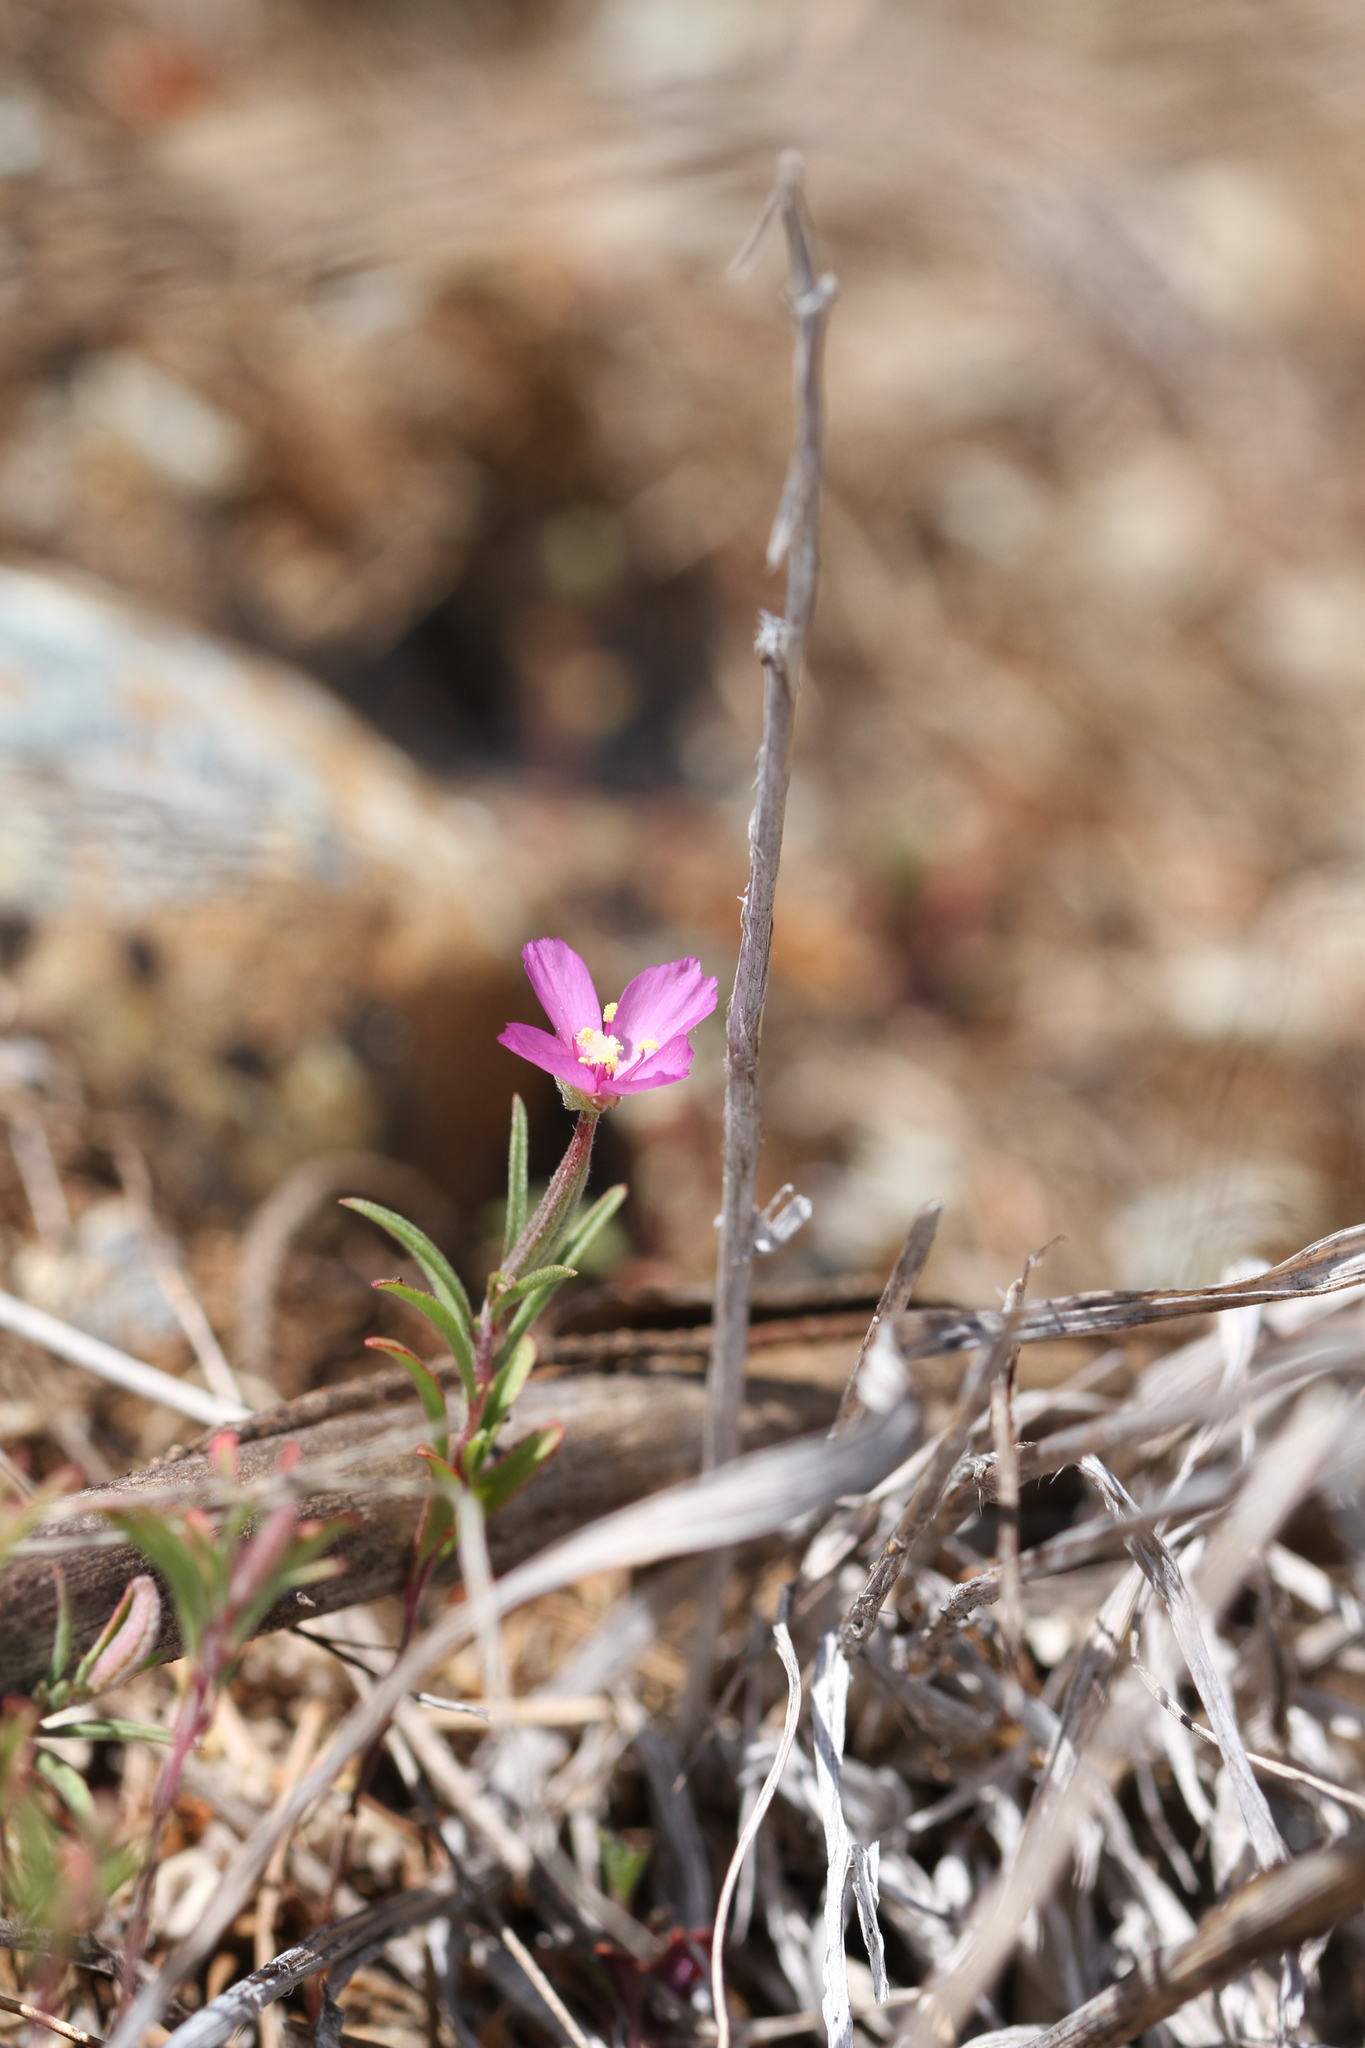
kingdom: Plantae
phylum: Tracheophyta
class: Magnoliopsida
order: Myrtales
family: Onagraceae
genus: Clarkia
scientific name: Clarkia gracilis
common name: Graceful clarkia
